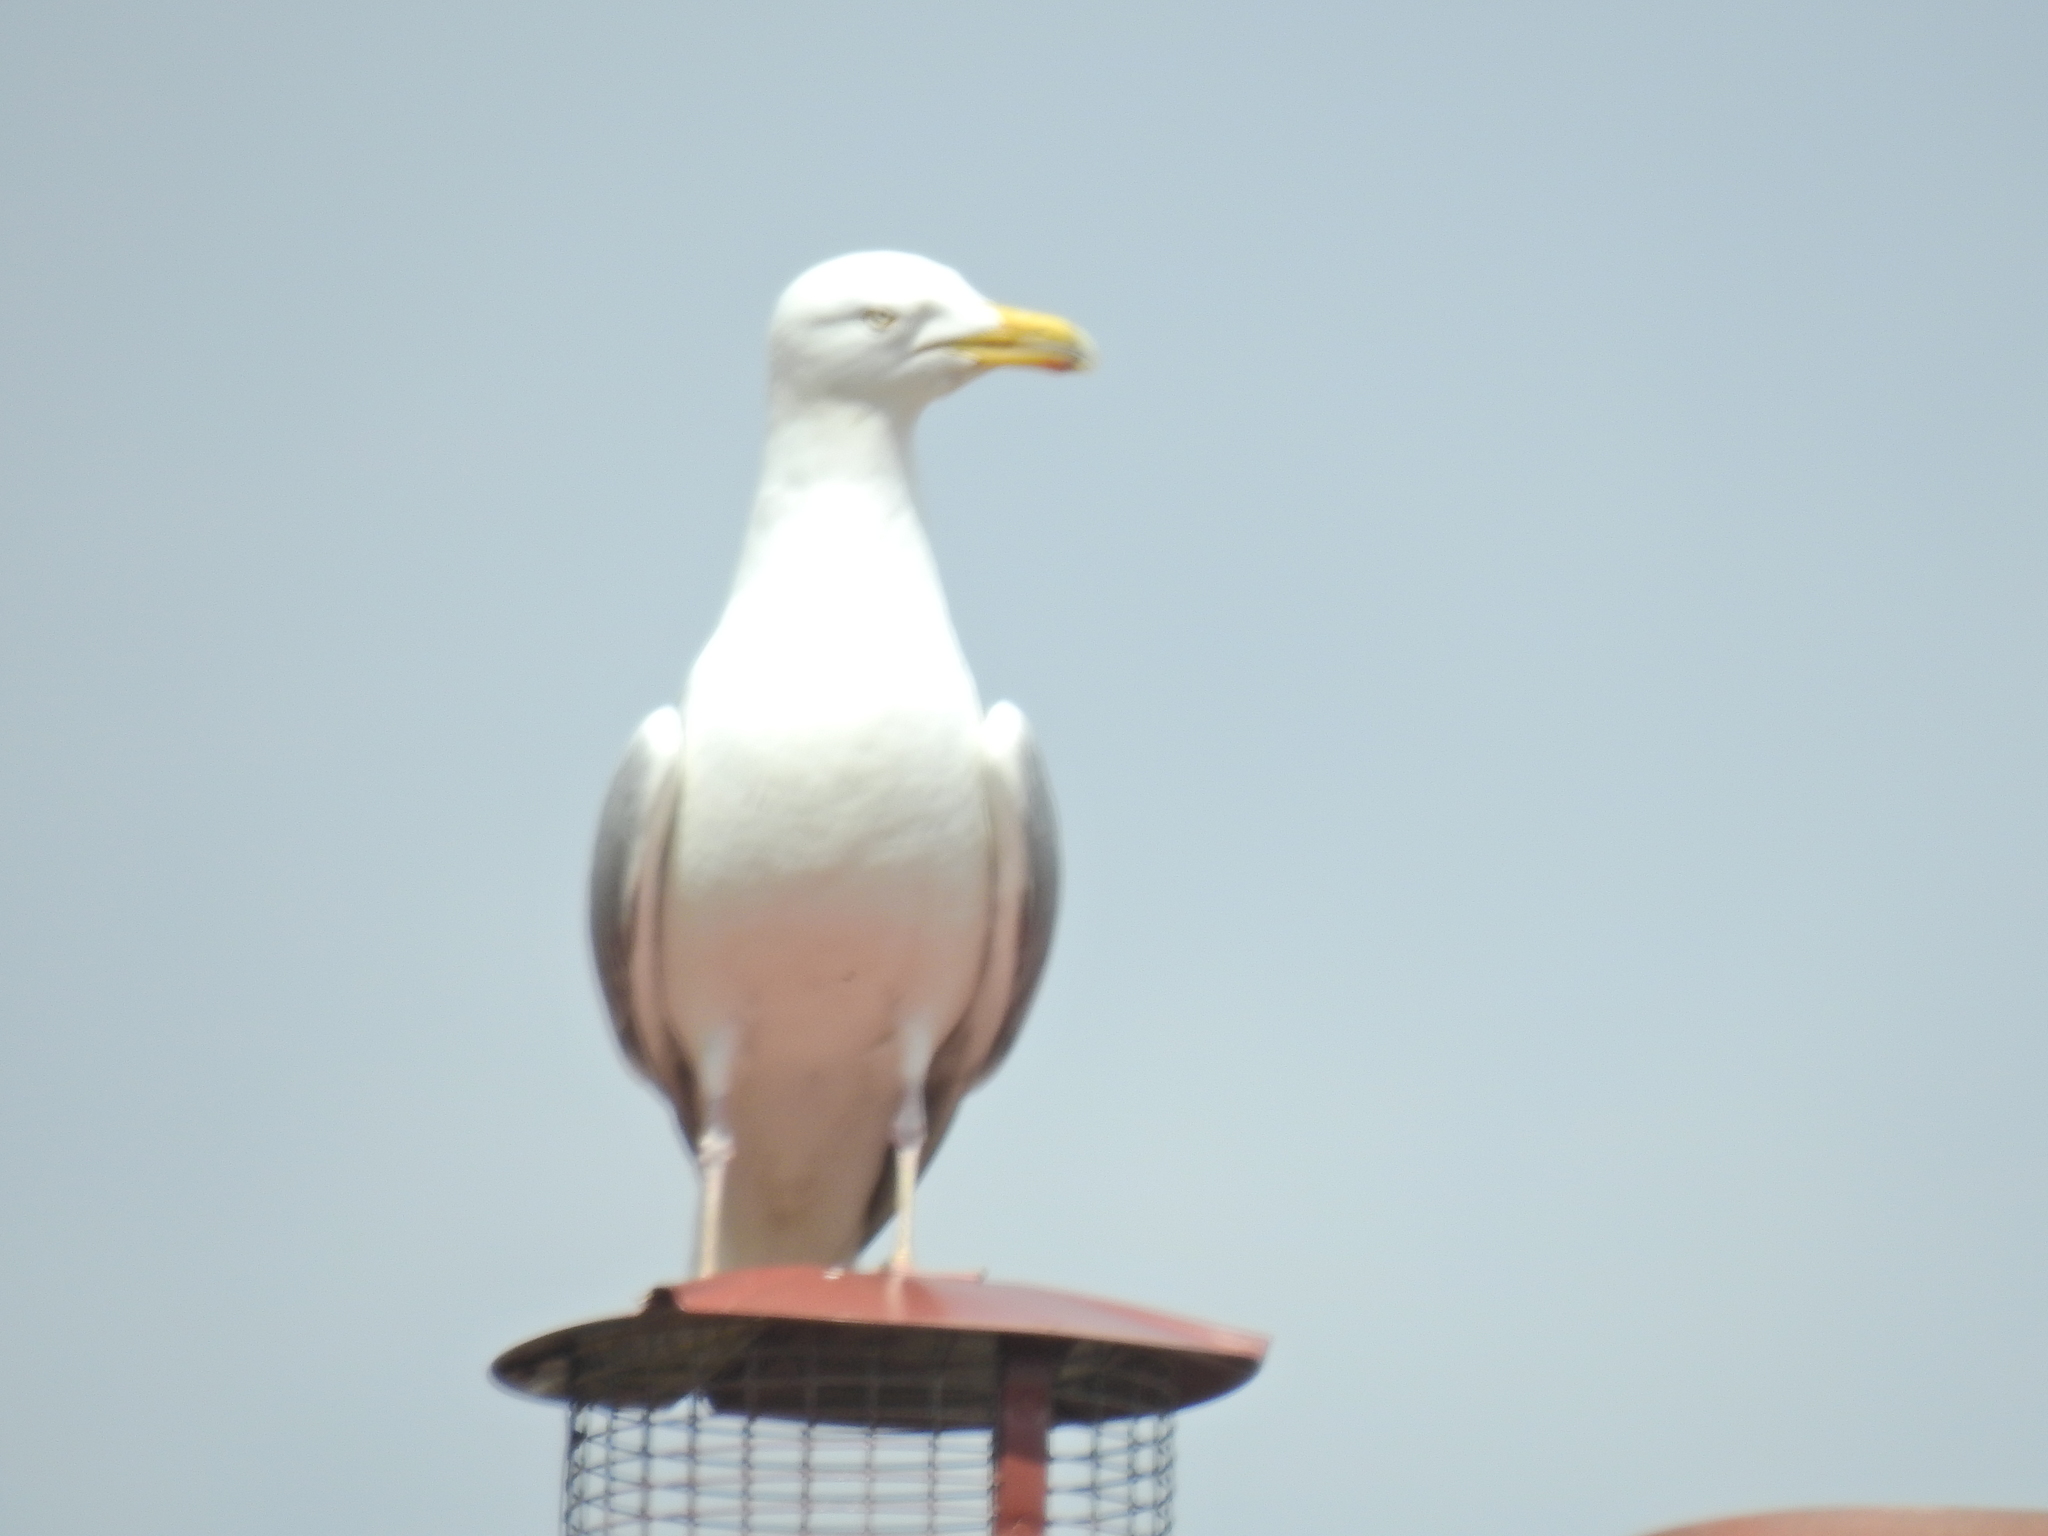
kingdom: Animalia
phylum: Chordata
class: Aves
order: Charadriiformes
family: Laridae
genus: Larus
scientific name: Larus argentatus
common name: Herring gull
